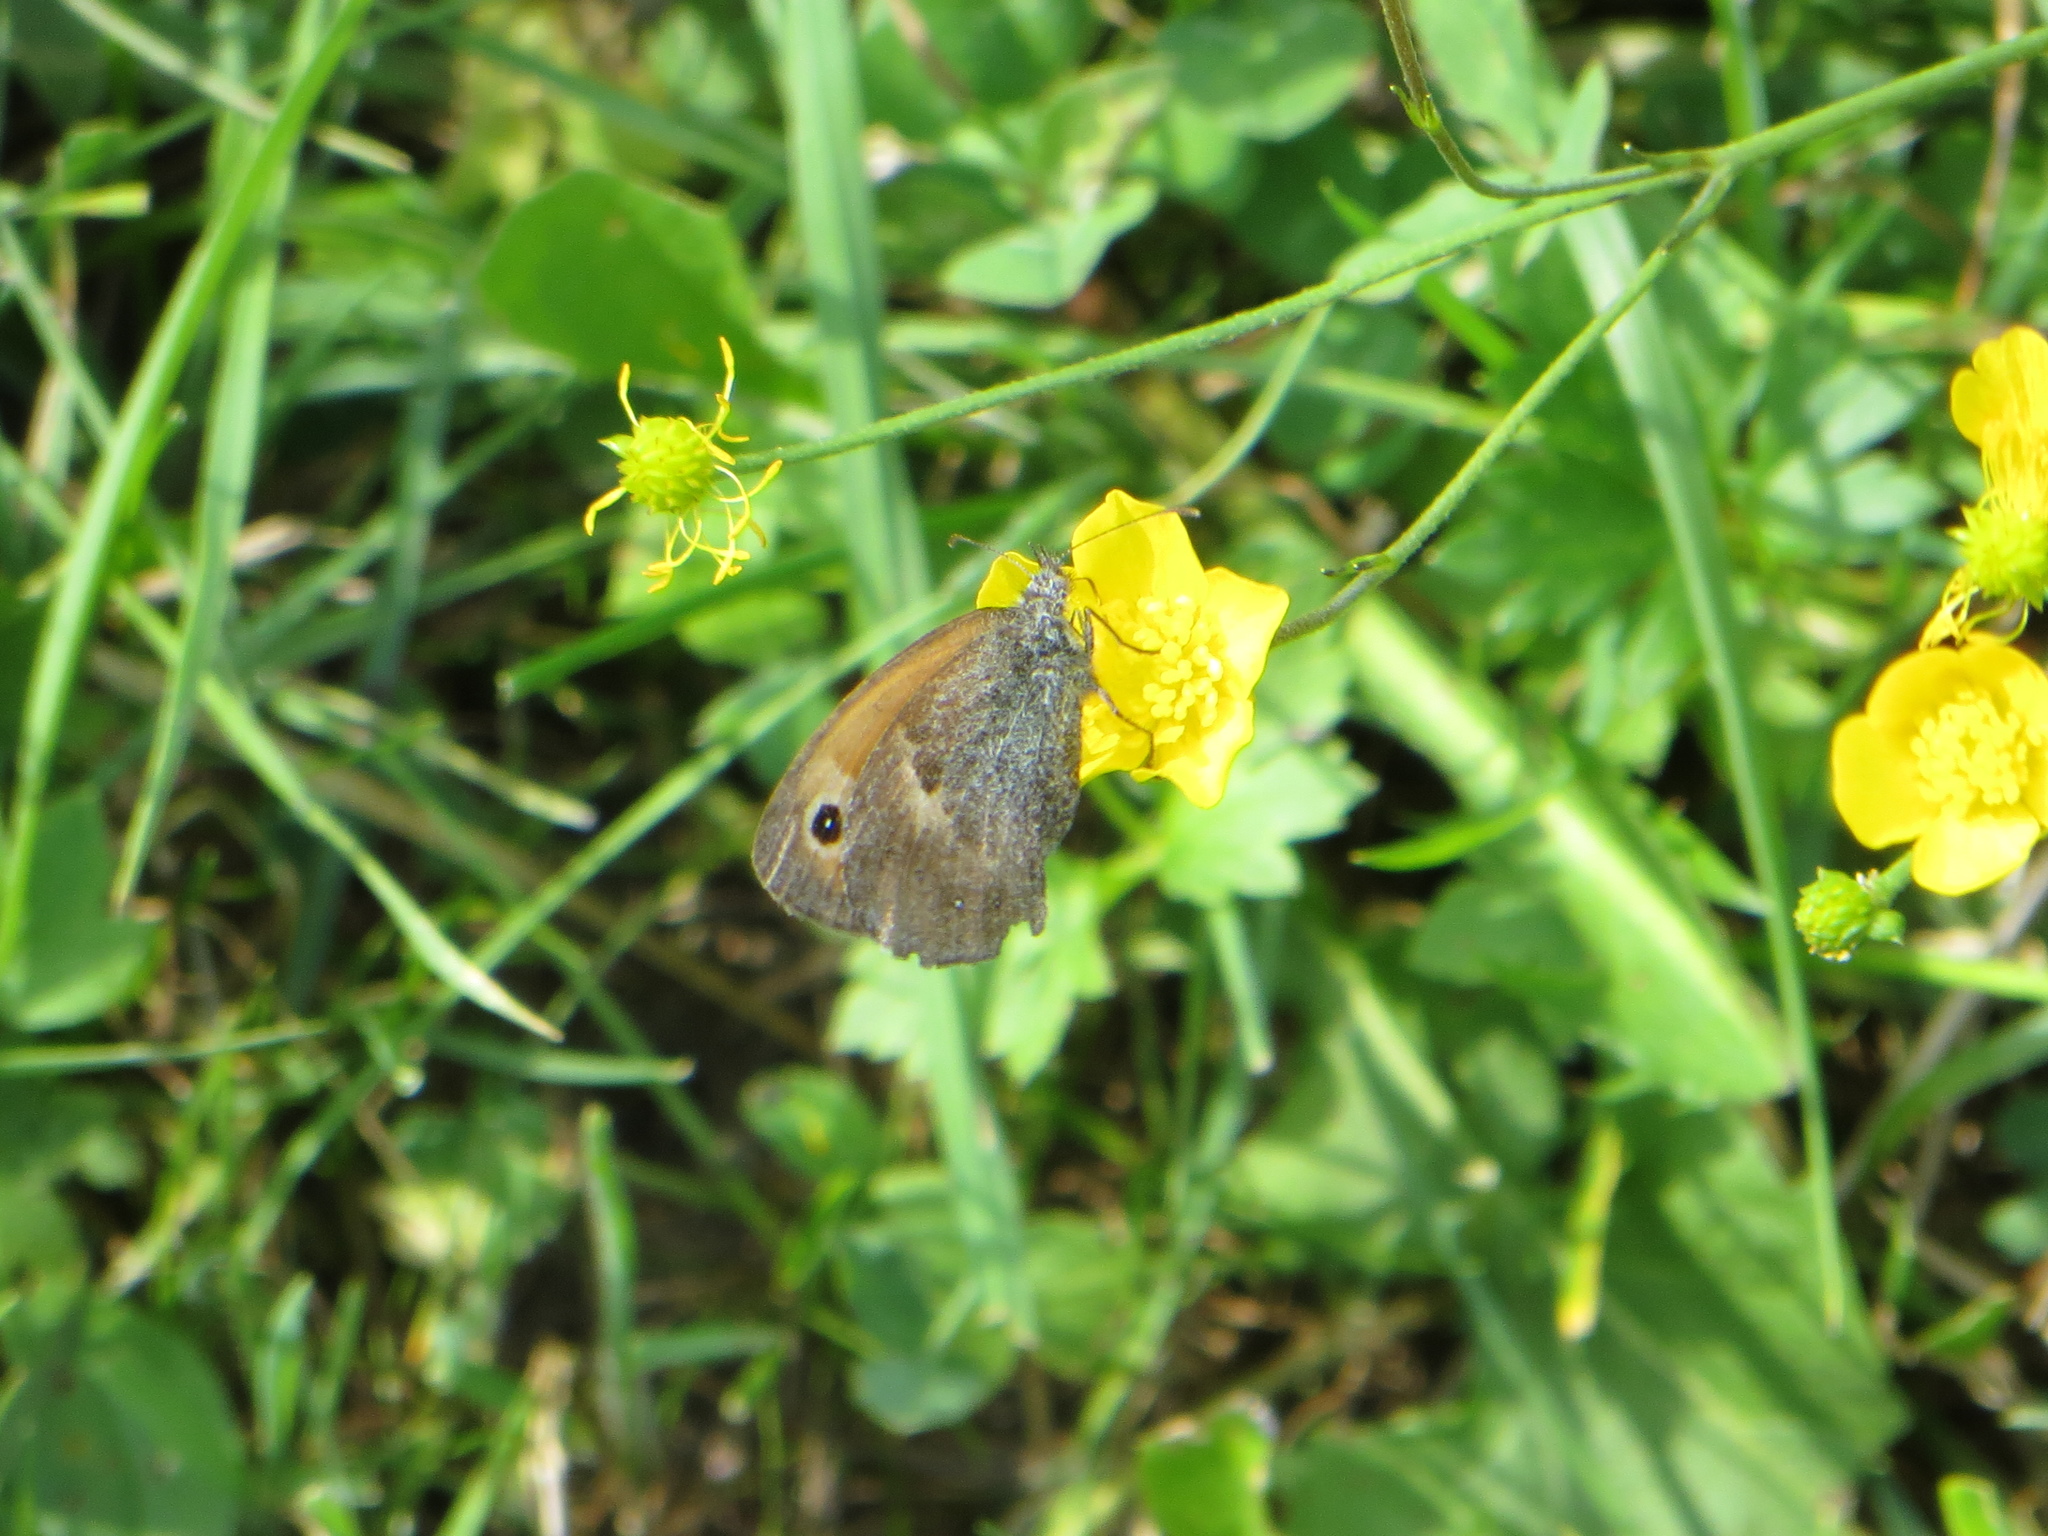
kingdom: Animalia
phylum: Arthropoda
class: Insecta
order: Lepidoptera
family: Nymphalidae
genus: Coenonympha
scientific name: Coenonympha pamphilus
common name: Small heath
